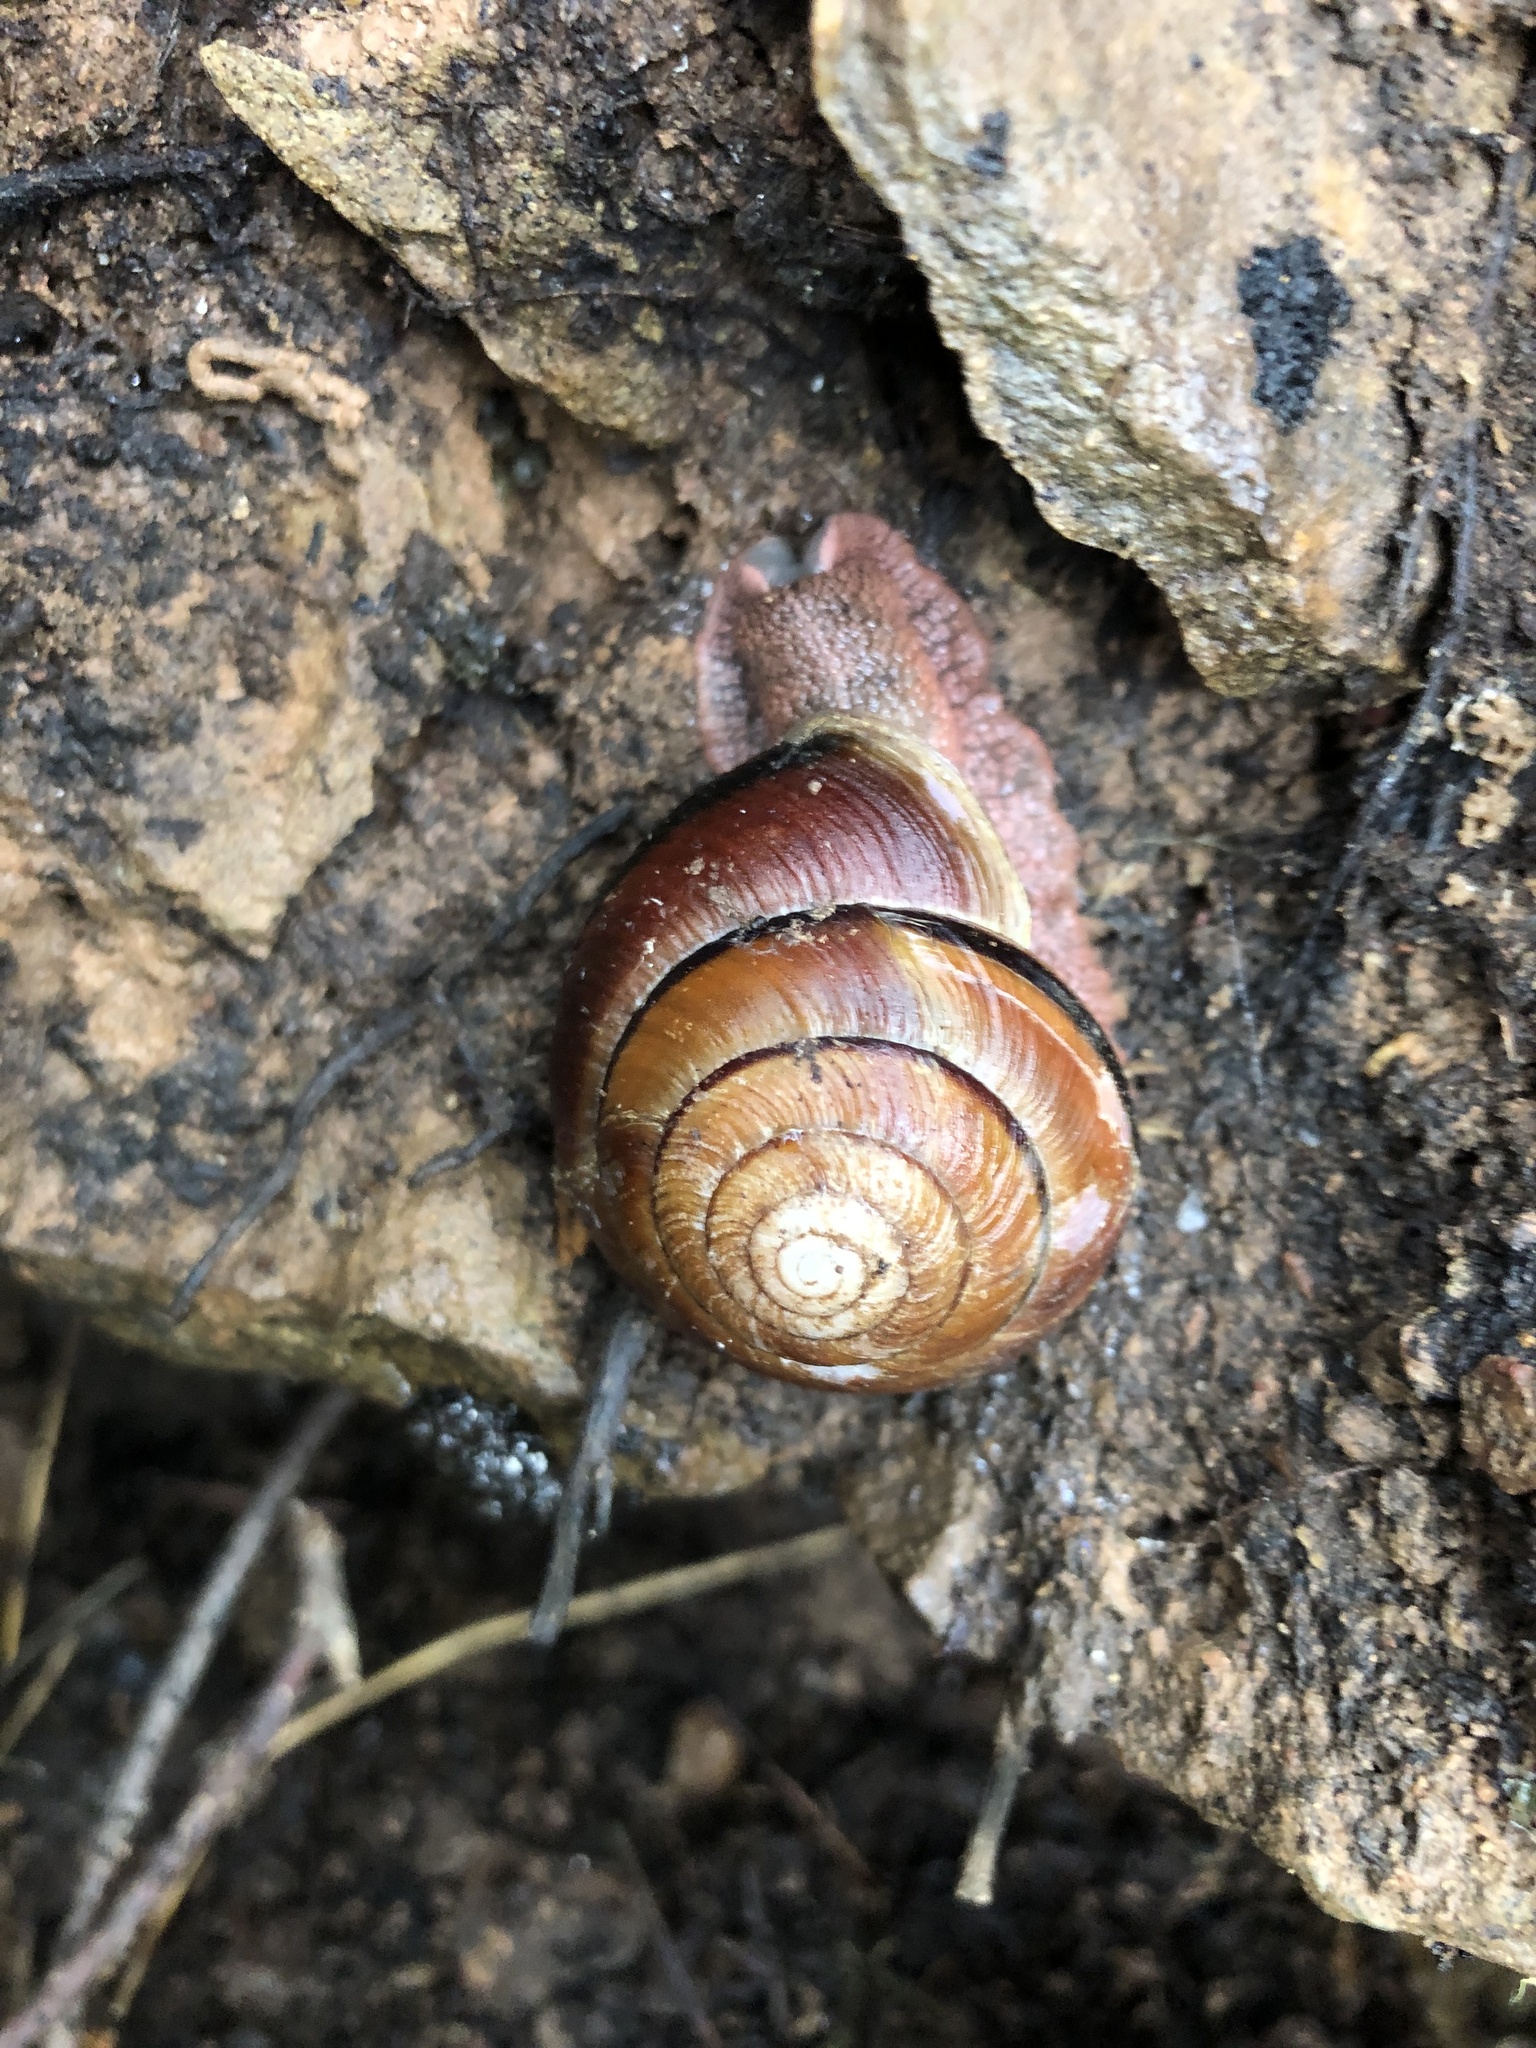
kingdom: Animalia
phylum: Mollusca
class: Gastropoda
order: Stylommatophora
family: Xanthonychidae
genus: Monadenia
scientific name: Monadenia fidelis
